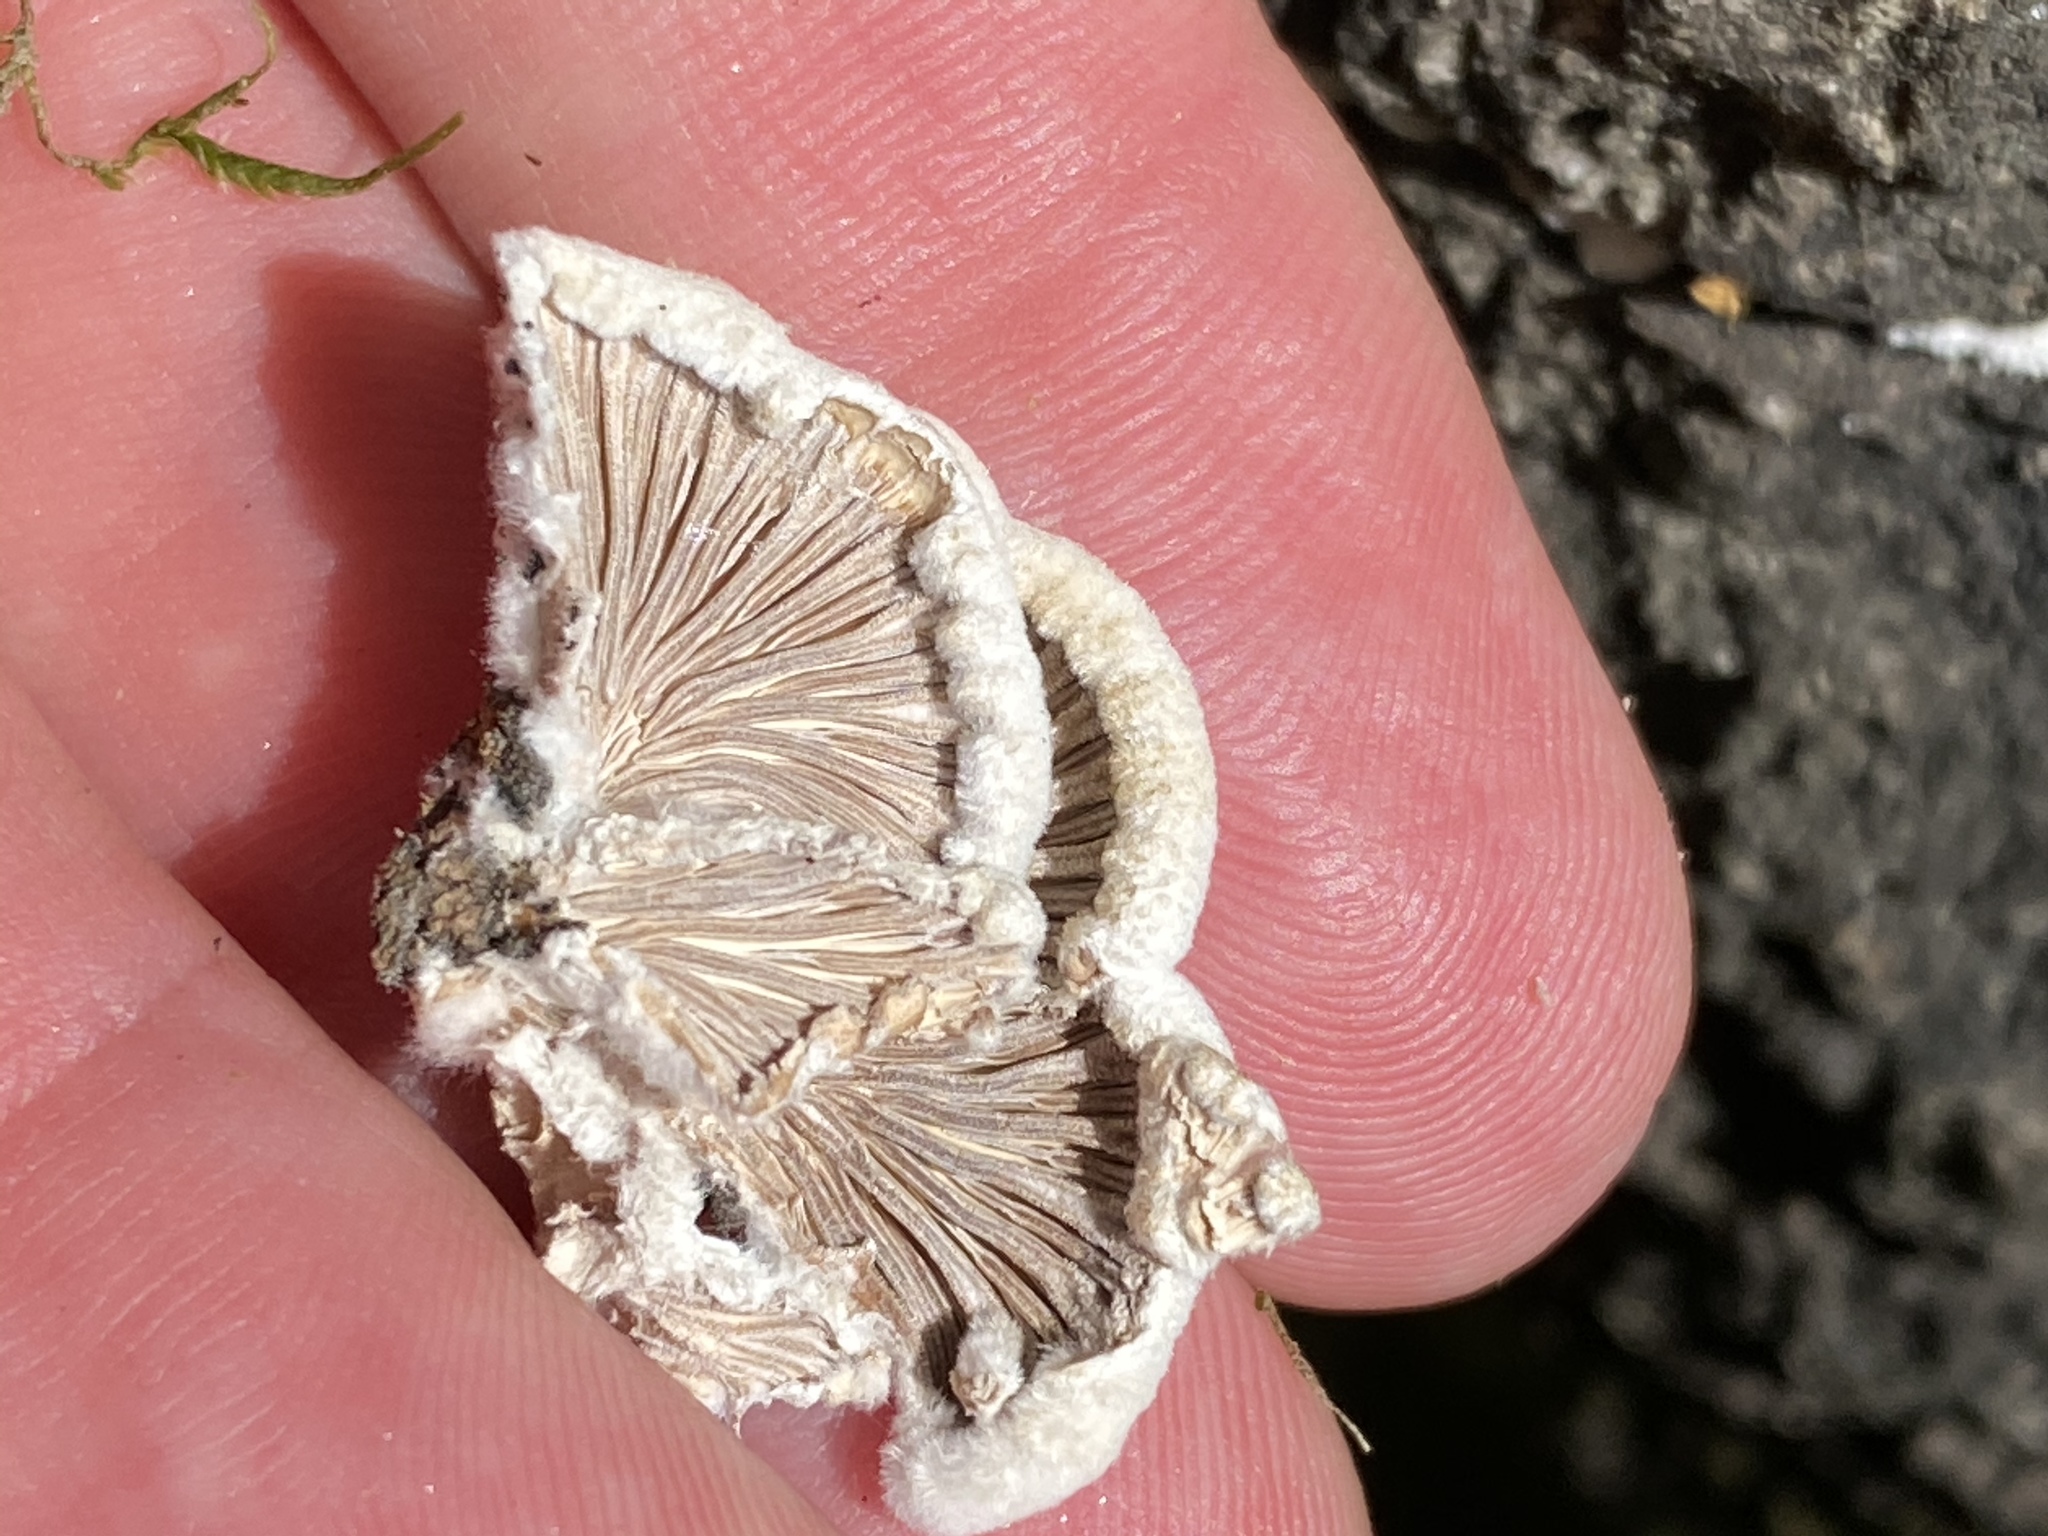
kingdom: Fungi
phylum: Basidiomycota
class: Agaricomycetes
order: Agaricales
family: Schizophyllaceae
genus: Schizophyllum
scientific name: Schizophyllum commune
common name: Common porecrust
